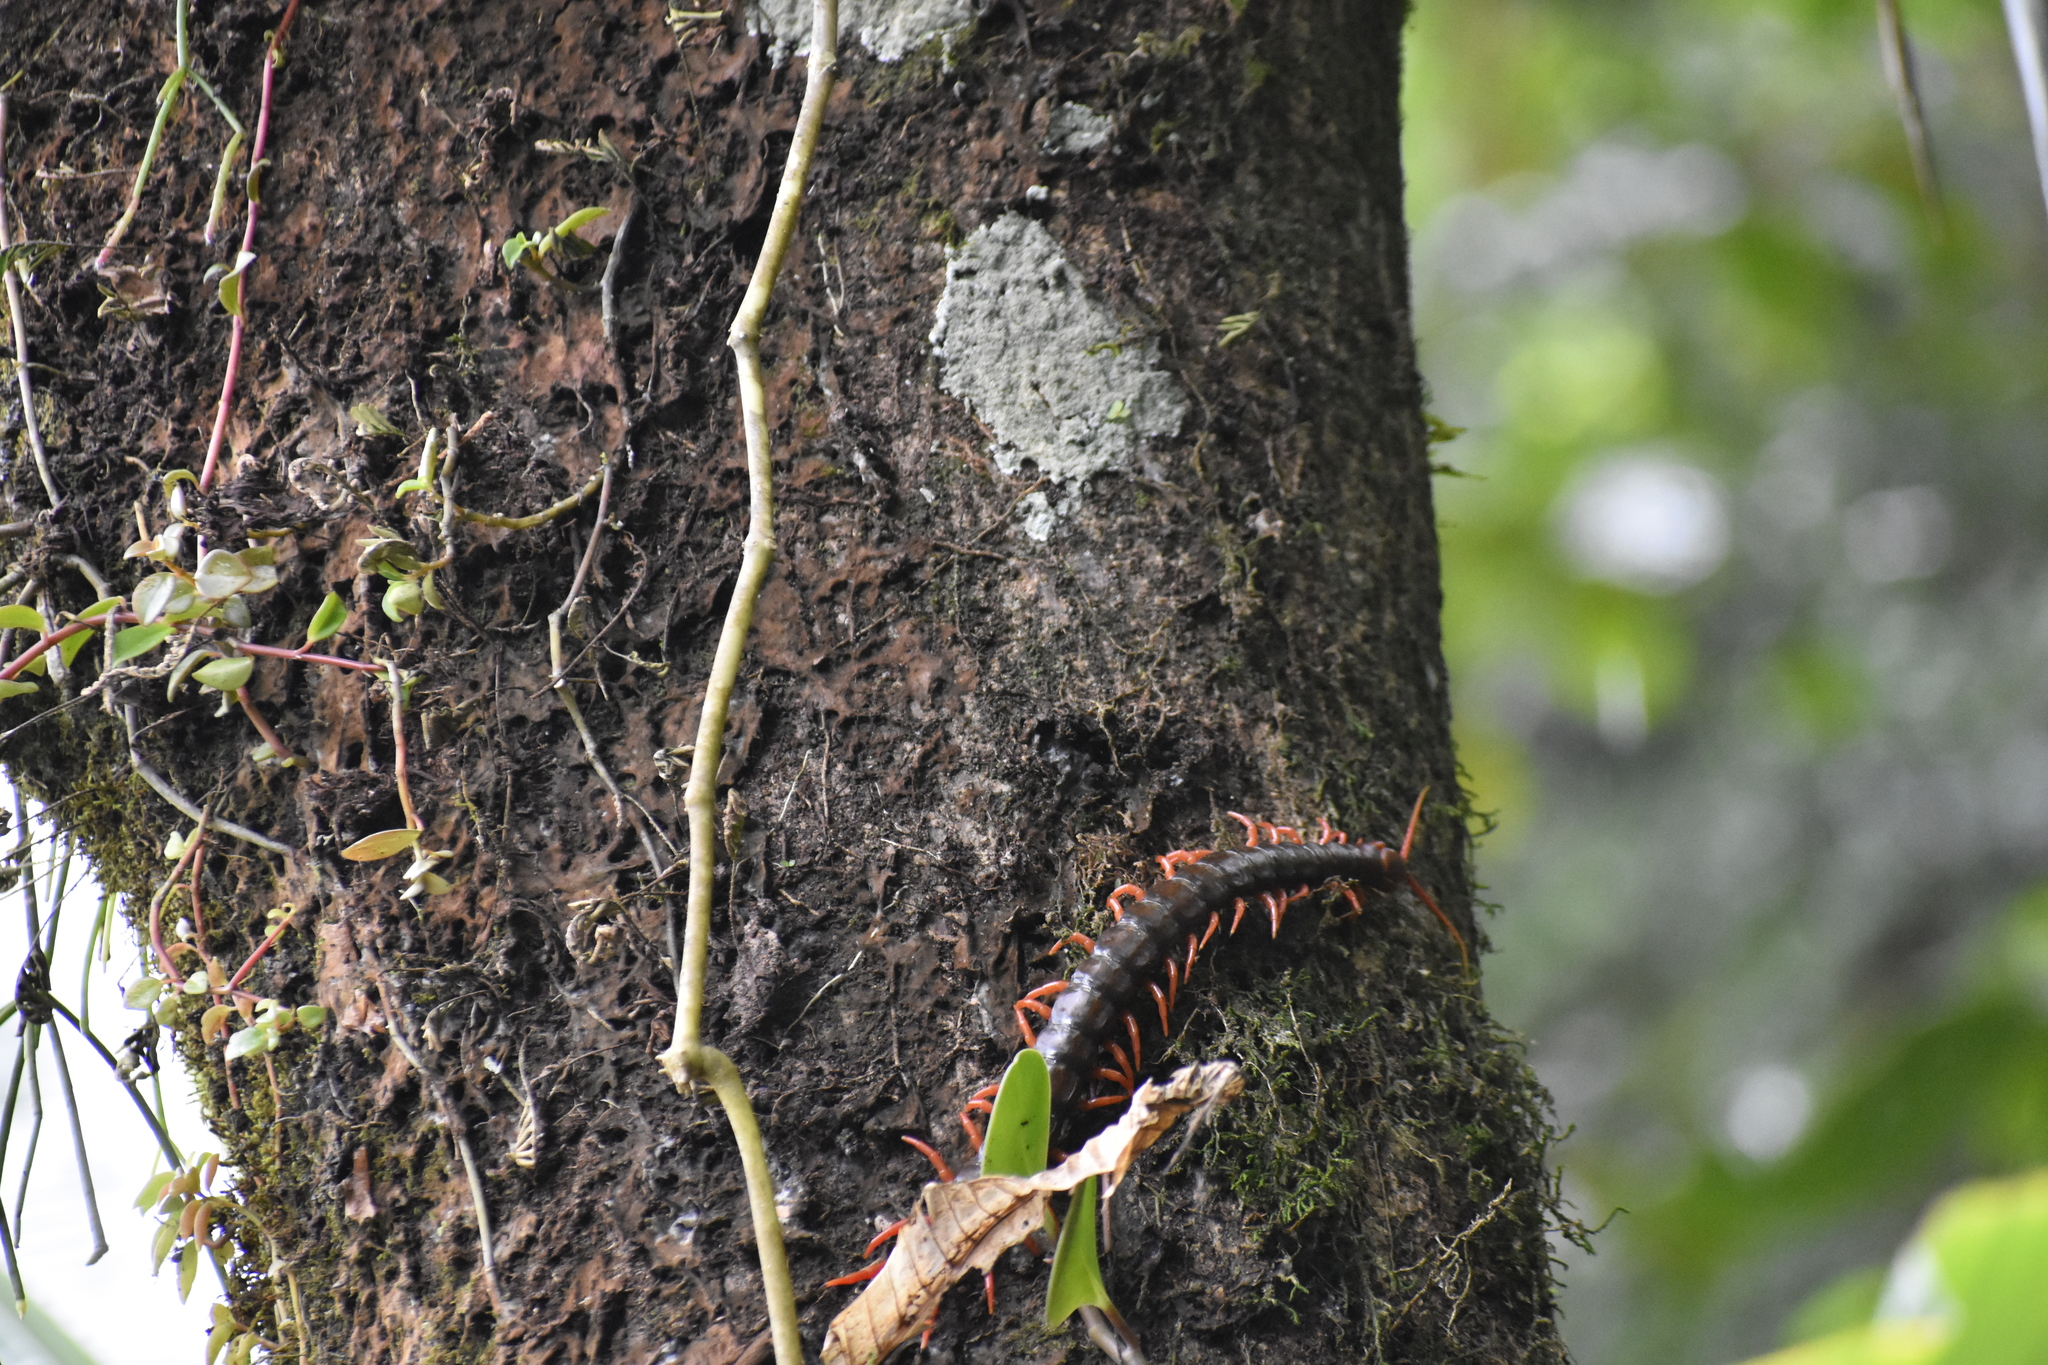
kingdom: Animalia
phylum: Arthropoda
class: Chilopoda
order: Scolopendromorpha
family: Scolopendridae
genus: Scolopendra
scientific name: Scolopendra sumichrasti
